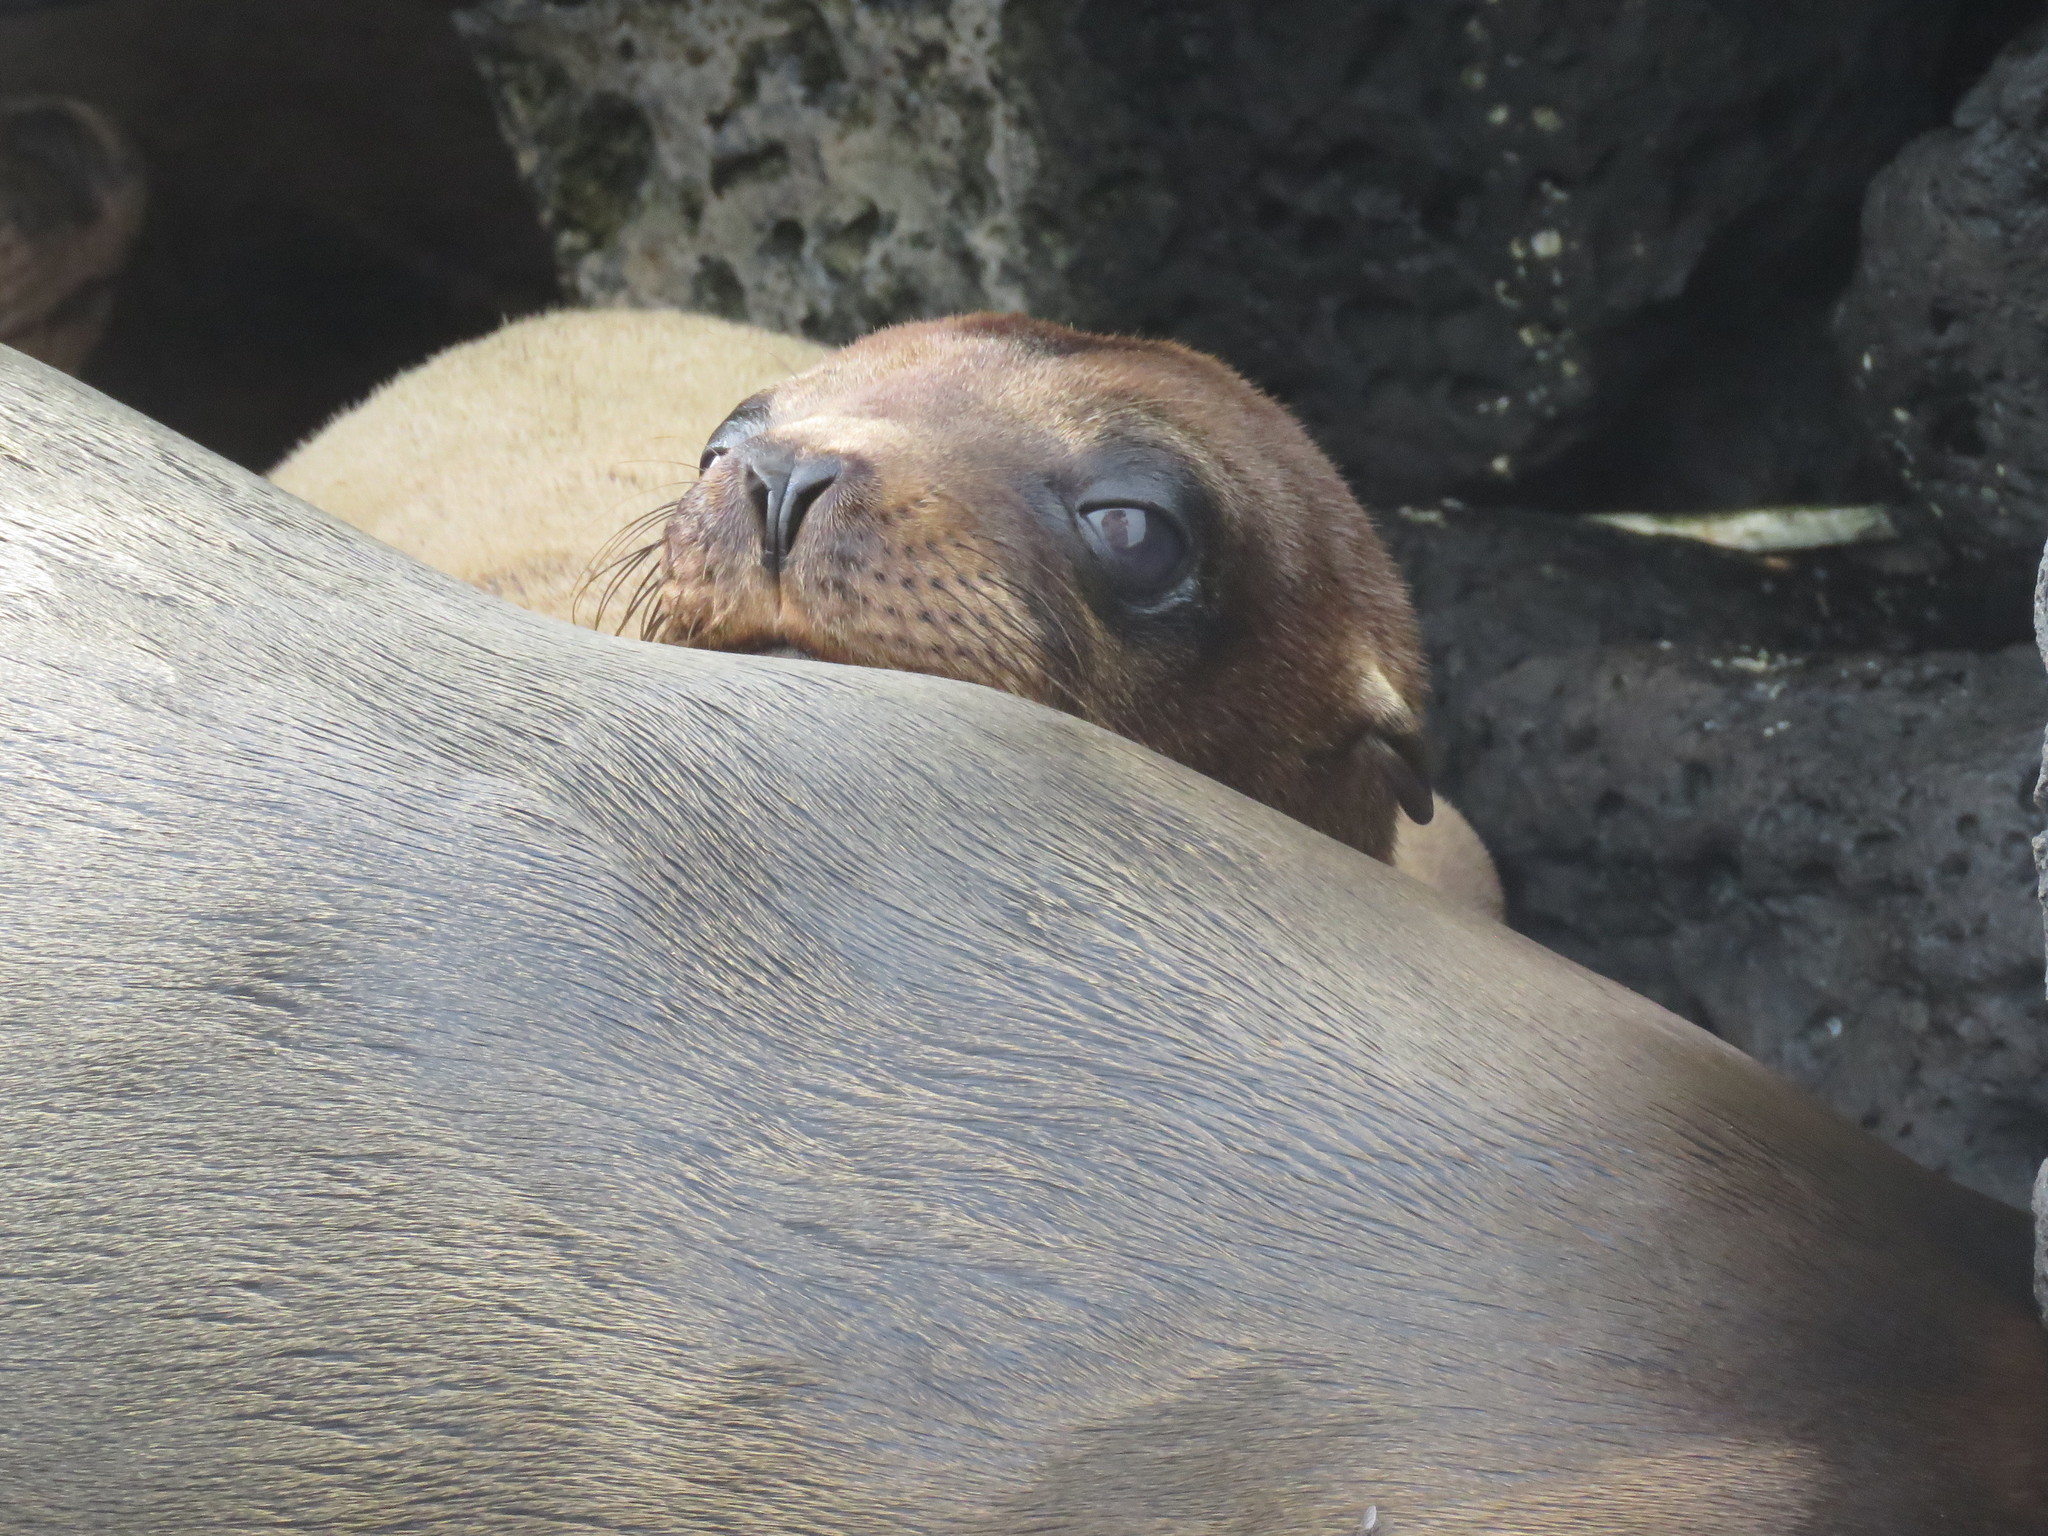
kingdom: Animalia
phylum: Chordata
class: Mammalia
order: Carnivora
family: Otariidae
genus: Zalophus
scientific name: Zalophus wollebaeki
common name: Galapagos sea lion
